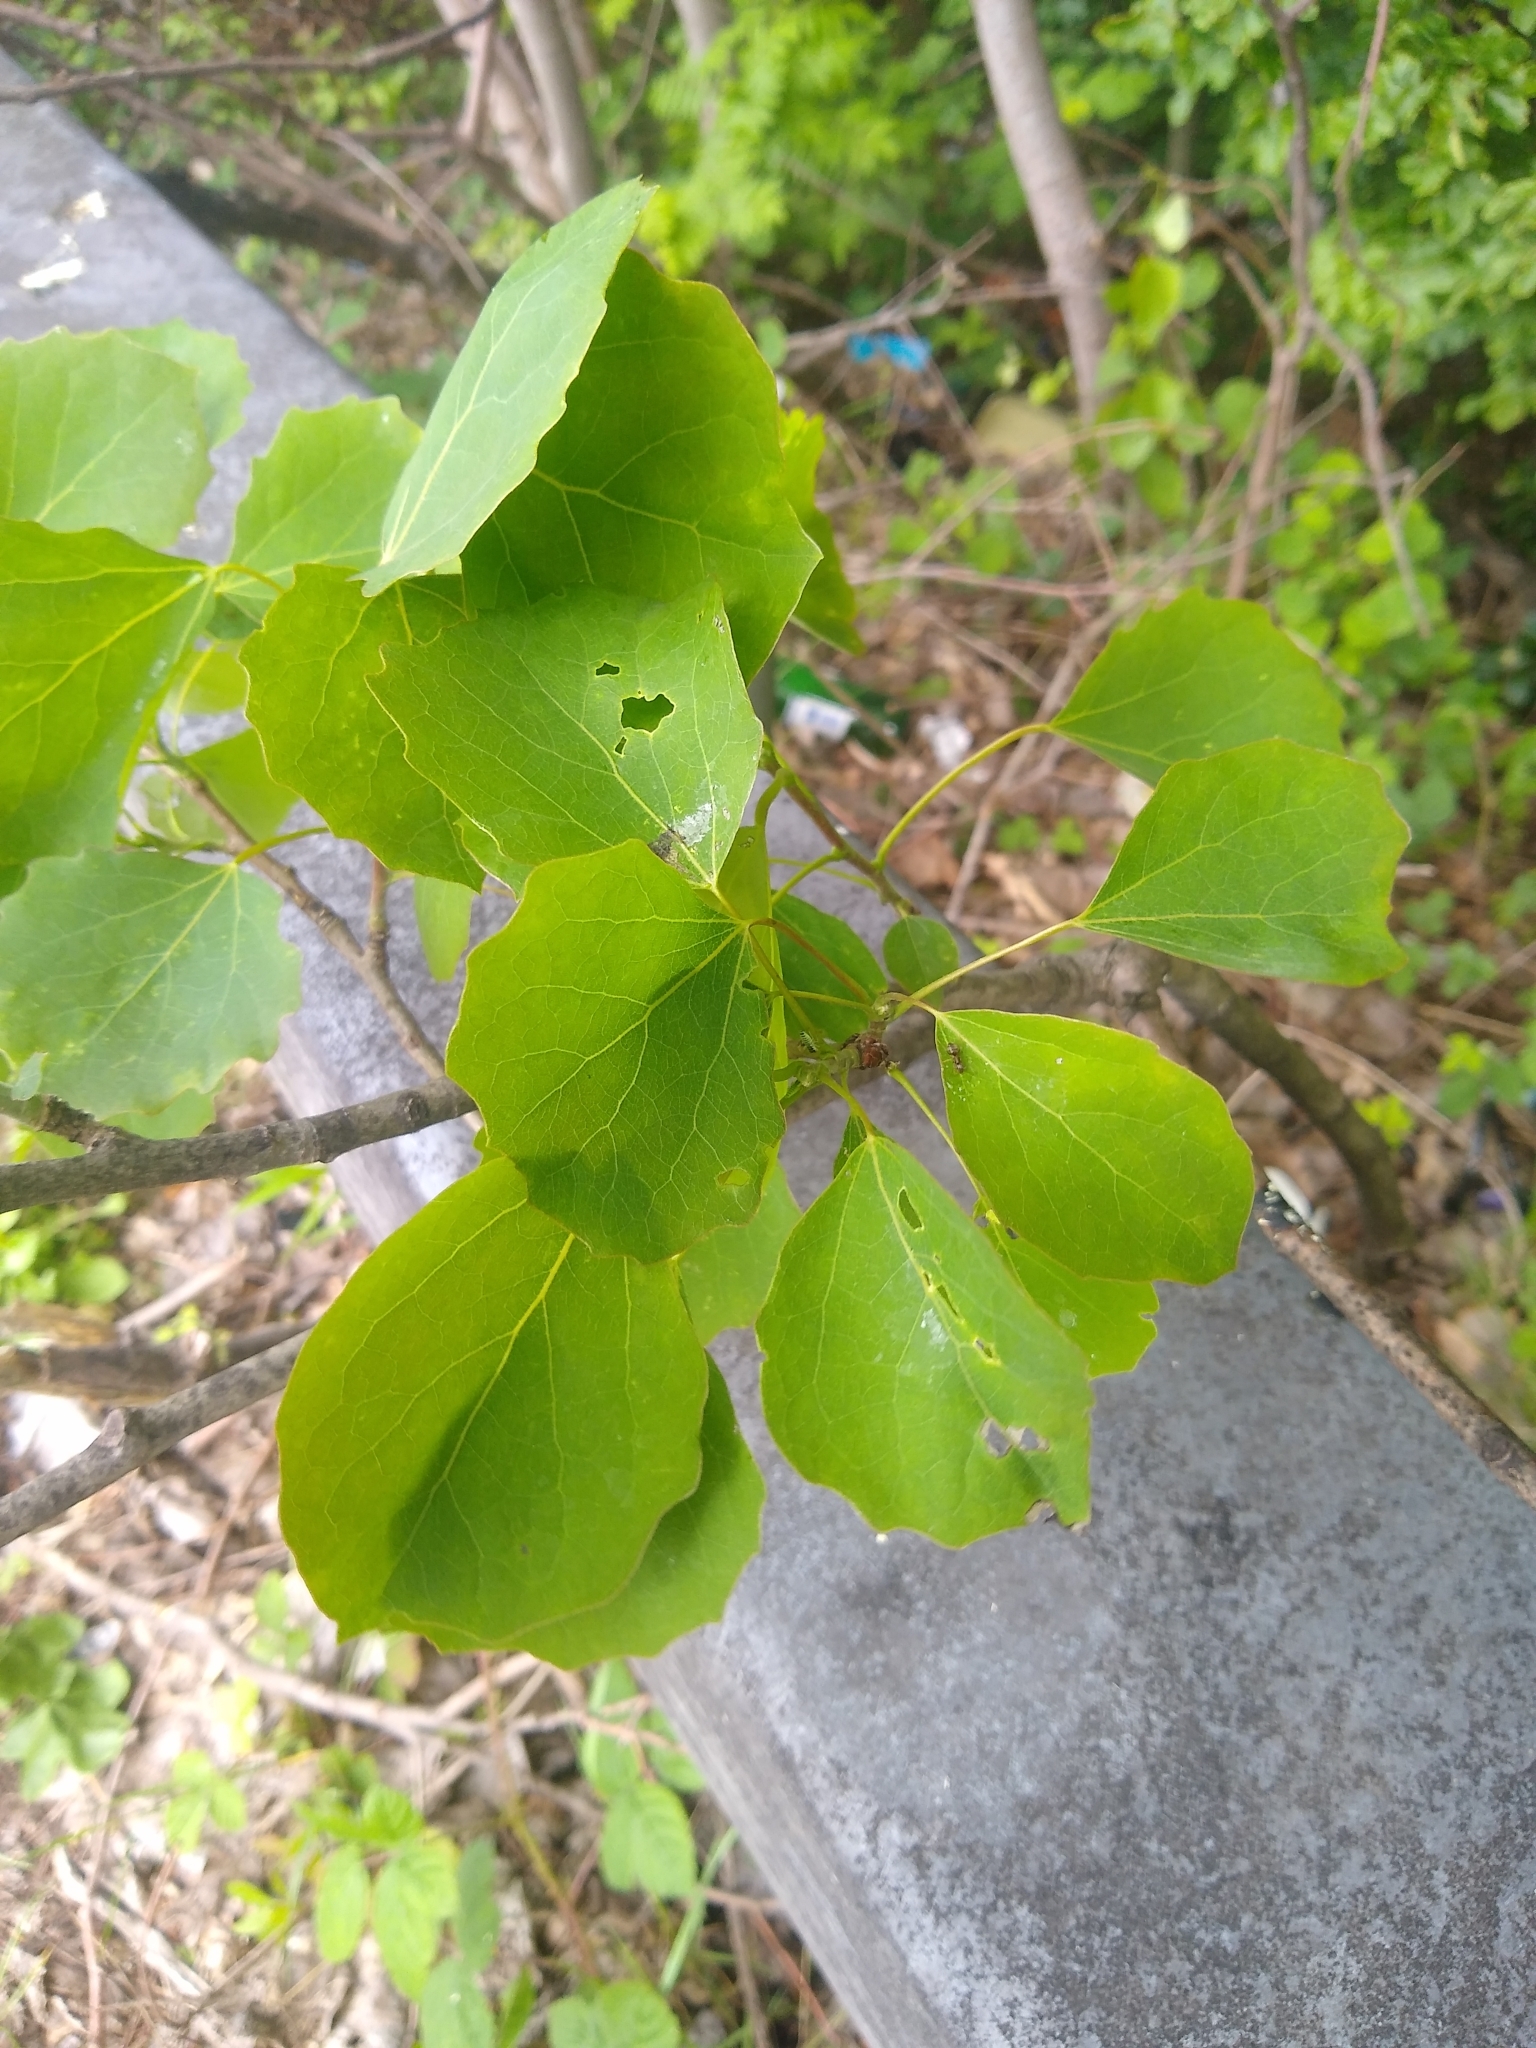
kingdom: Plantae
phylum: Tracheophyta
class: Magnoliopsida
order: Malpighiales
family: Salicaceae
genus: Populus
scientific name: Populus tremula
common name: European aspen
